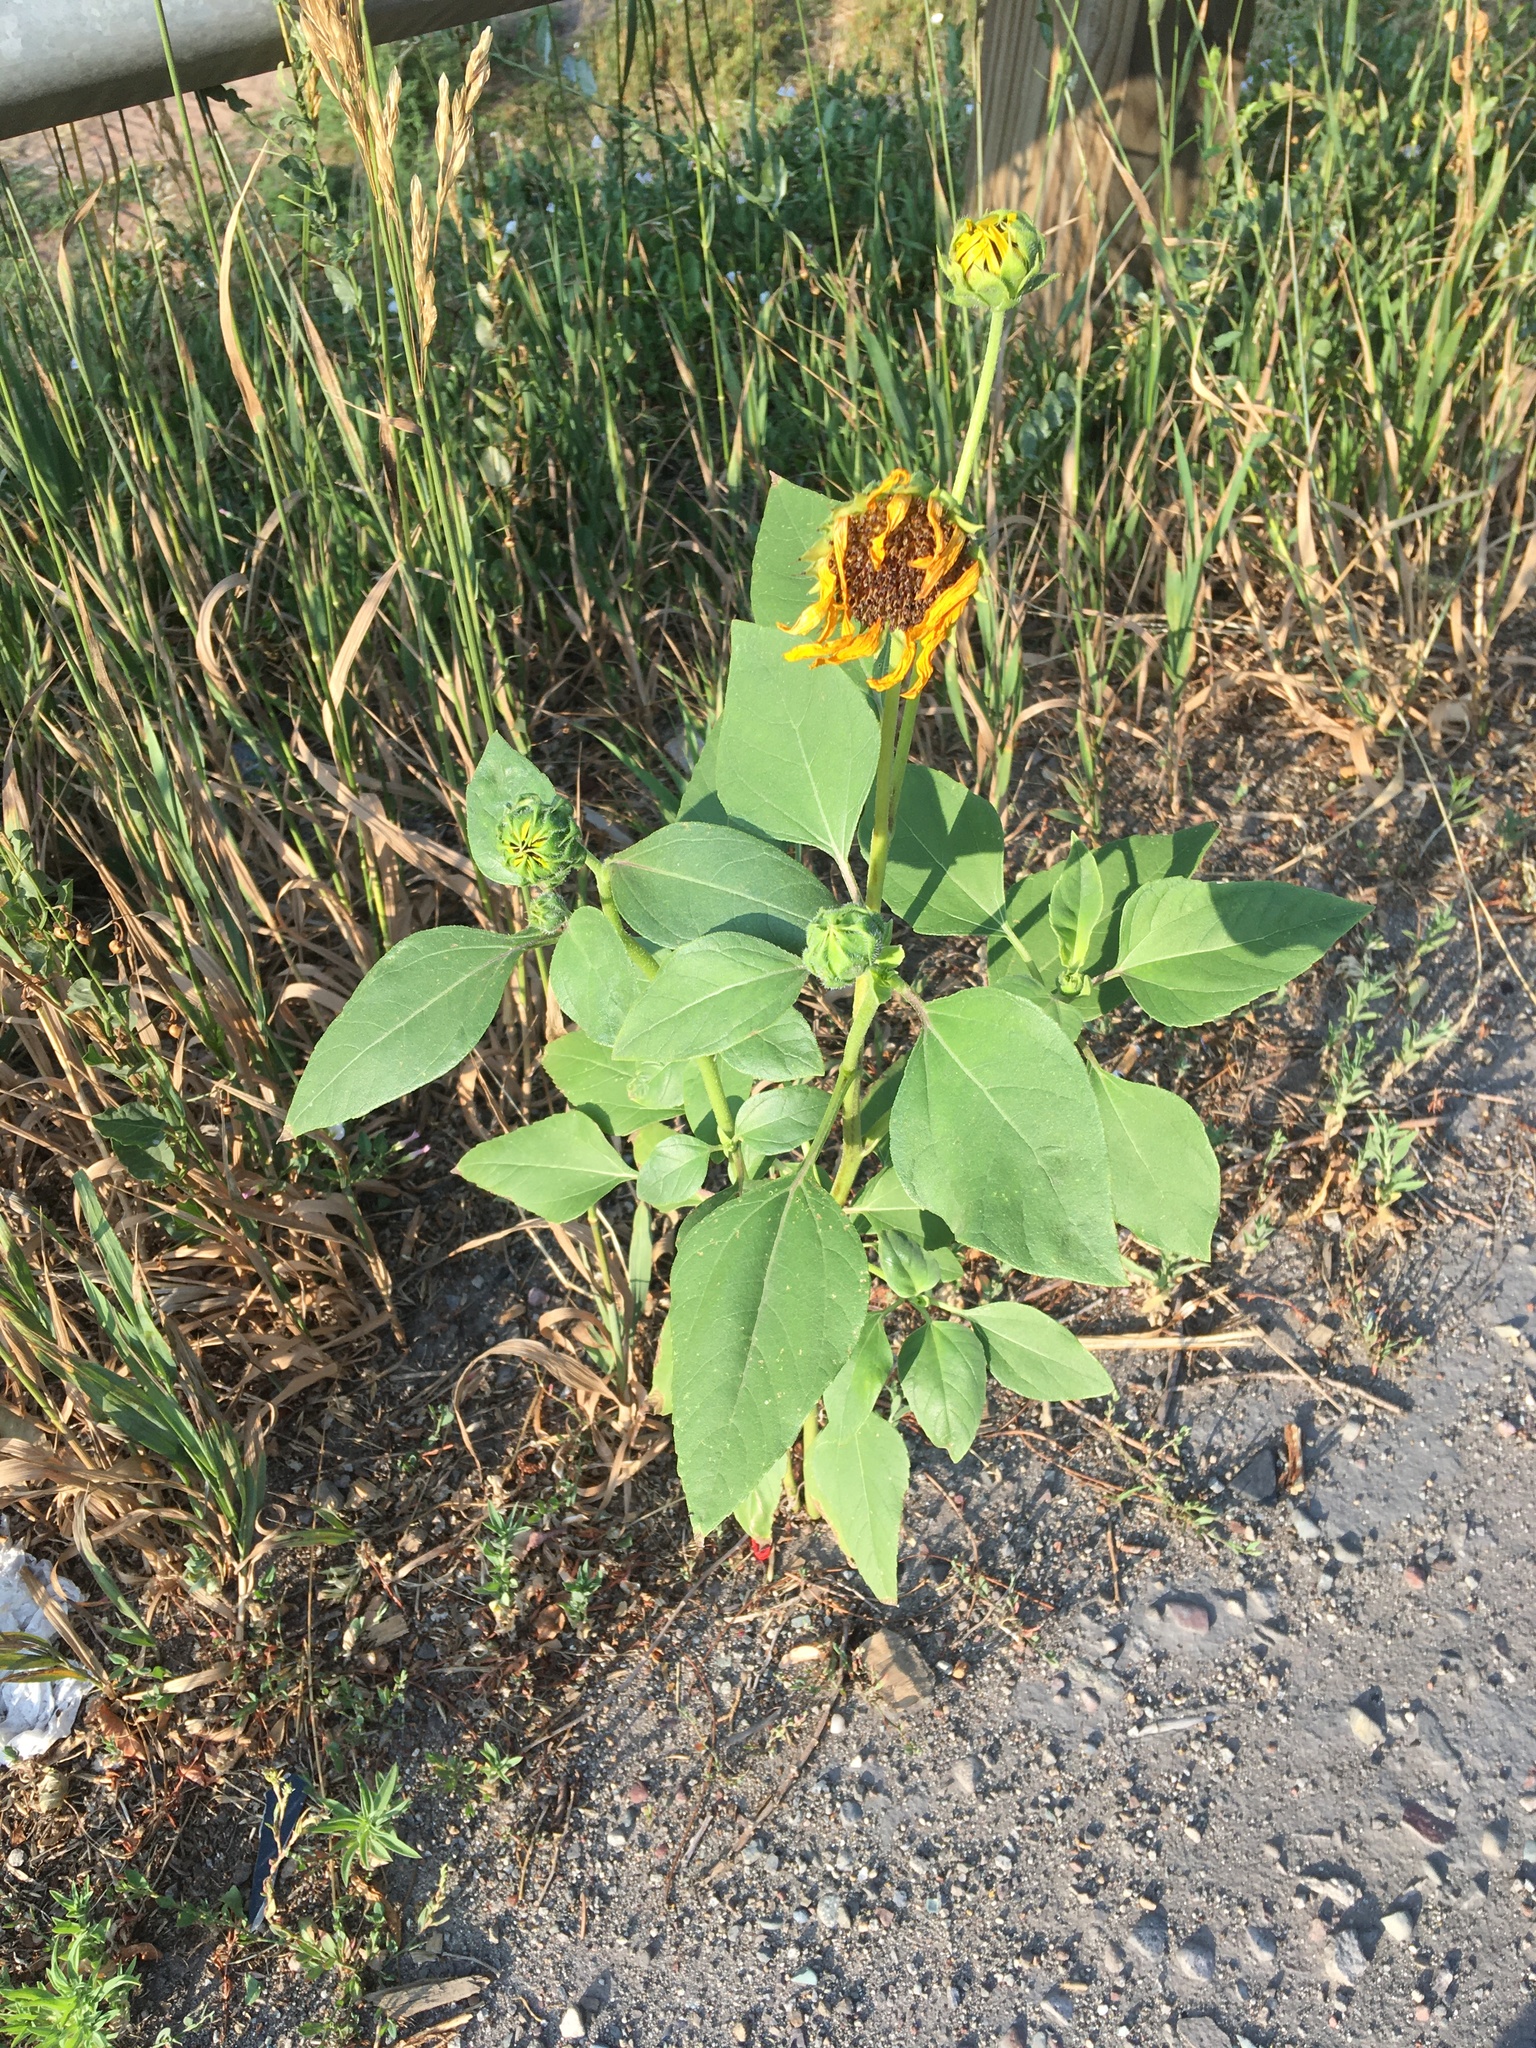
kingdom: Plantae
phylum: Tracheophyta
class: Magnoliopsida
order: Asterales
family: Asteraceae
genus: Helianthus
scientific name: Helianthus annuus
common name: Sunflower
